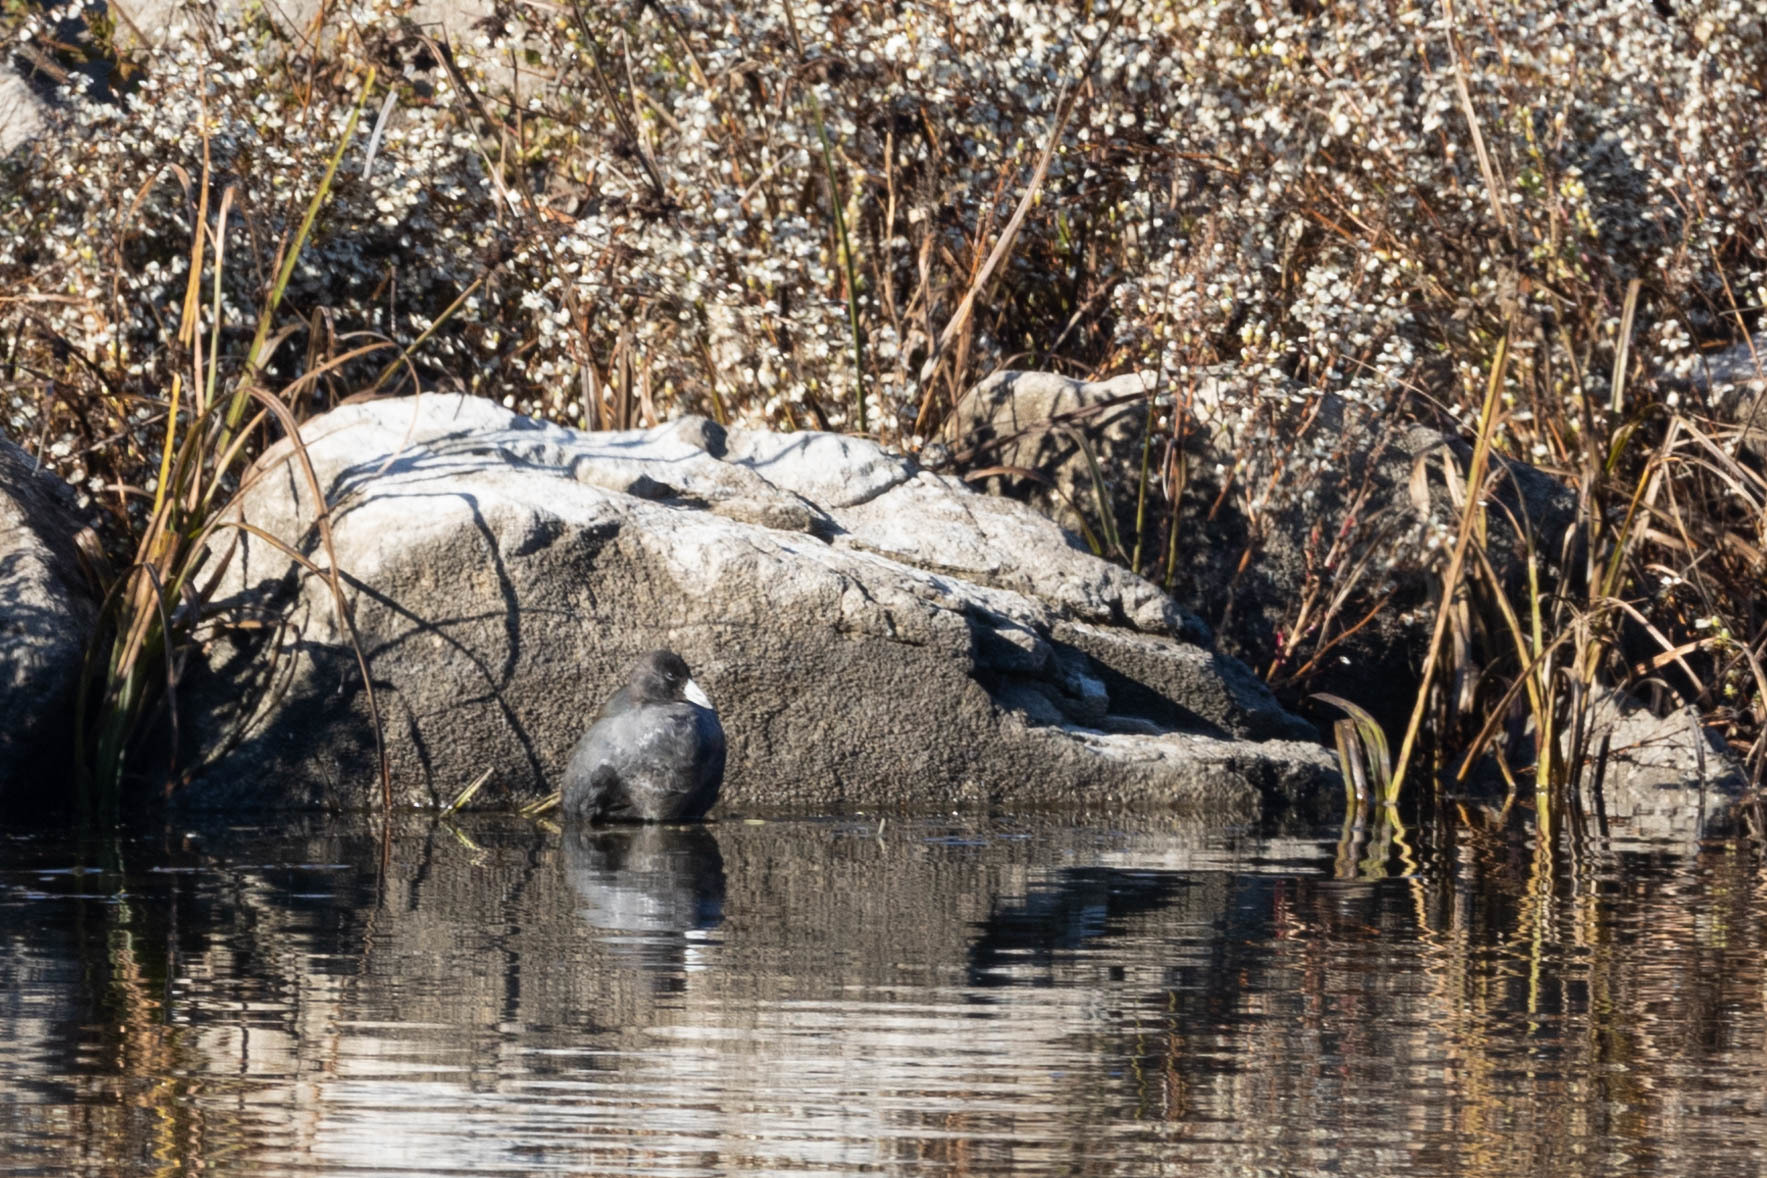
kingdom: Animalia
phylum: Chordata
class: Aves
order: Gruiformes
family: Rallidae
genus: Fulica
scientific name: Fulica americana
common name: American coot
